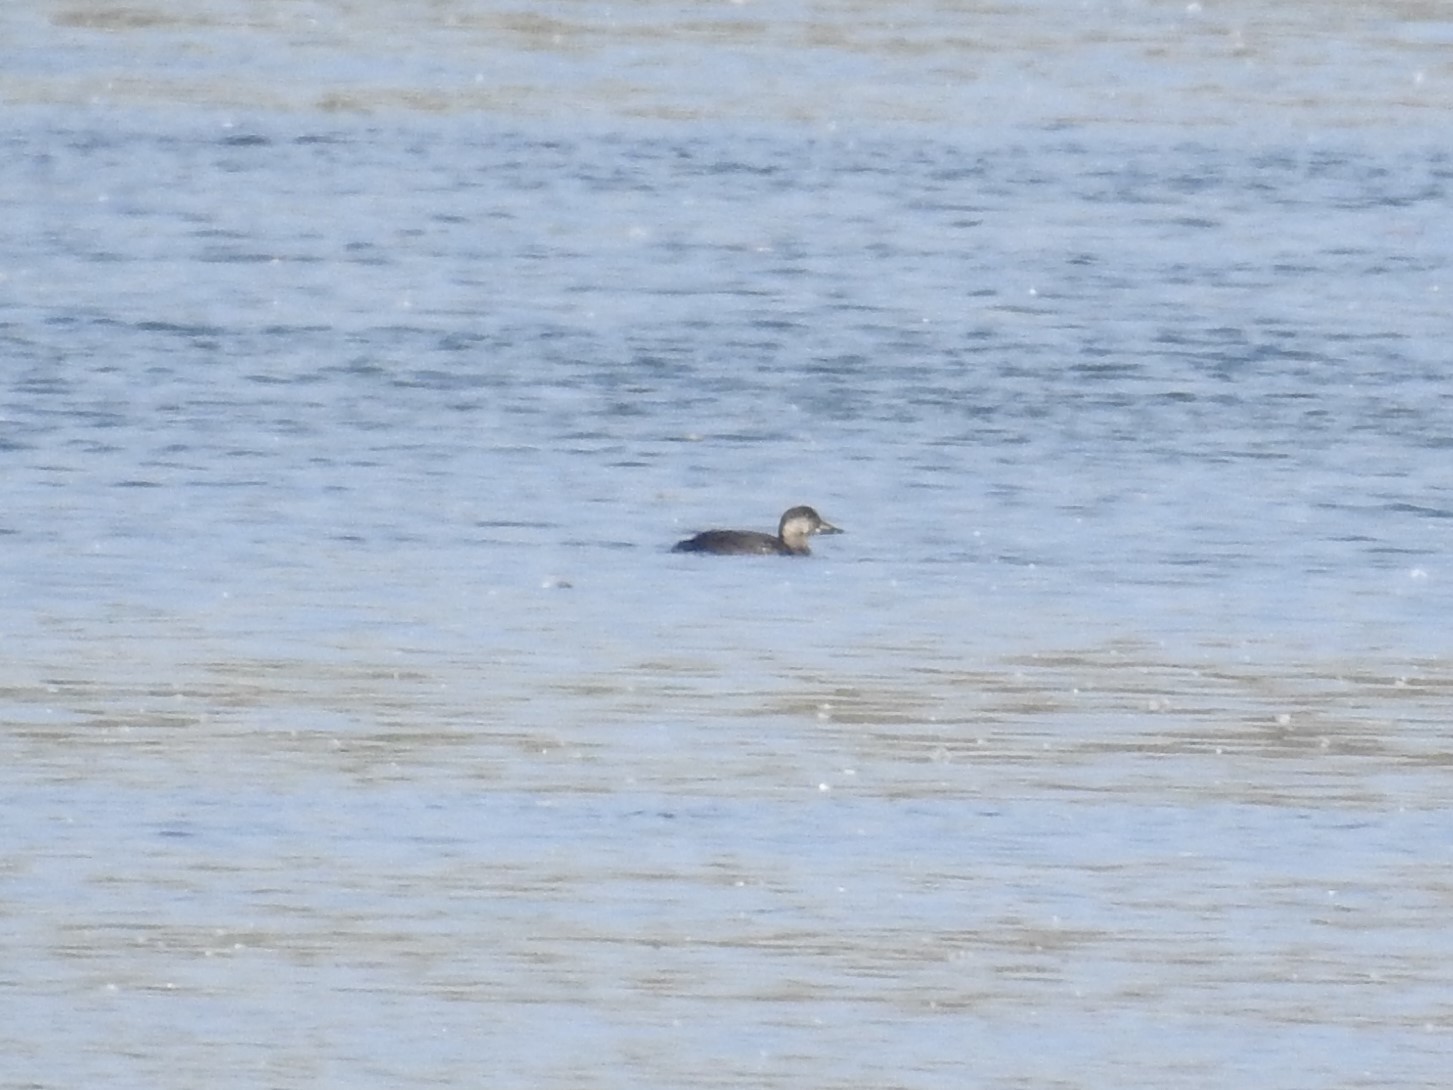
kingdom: Animalia
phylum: Chordata
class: Aves
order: Anseriformes
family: Anatidae
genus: Melanitta
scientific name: Melanitta americana
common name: Black scoter
